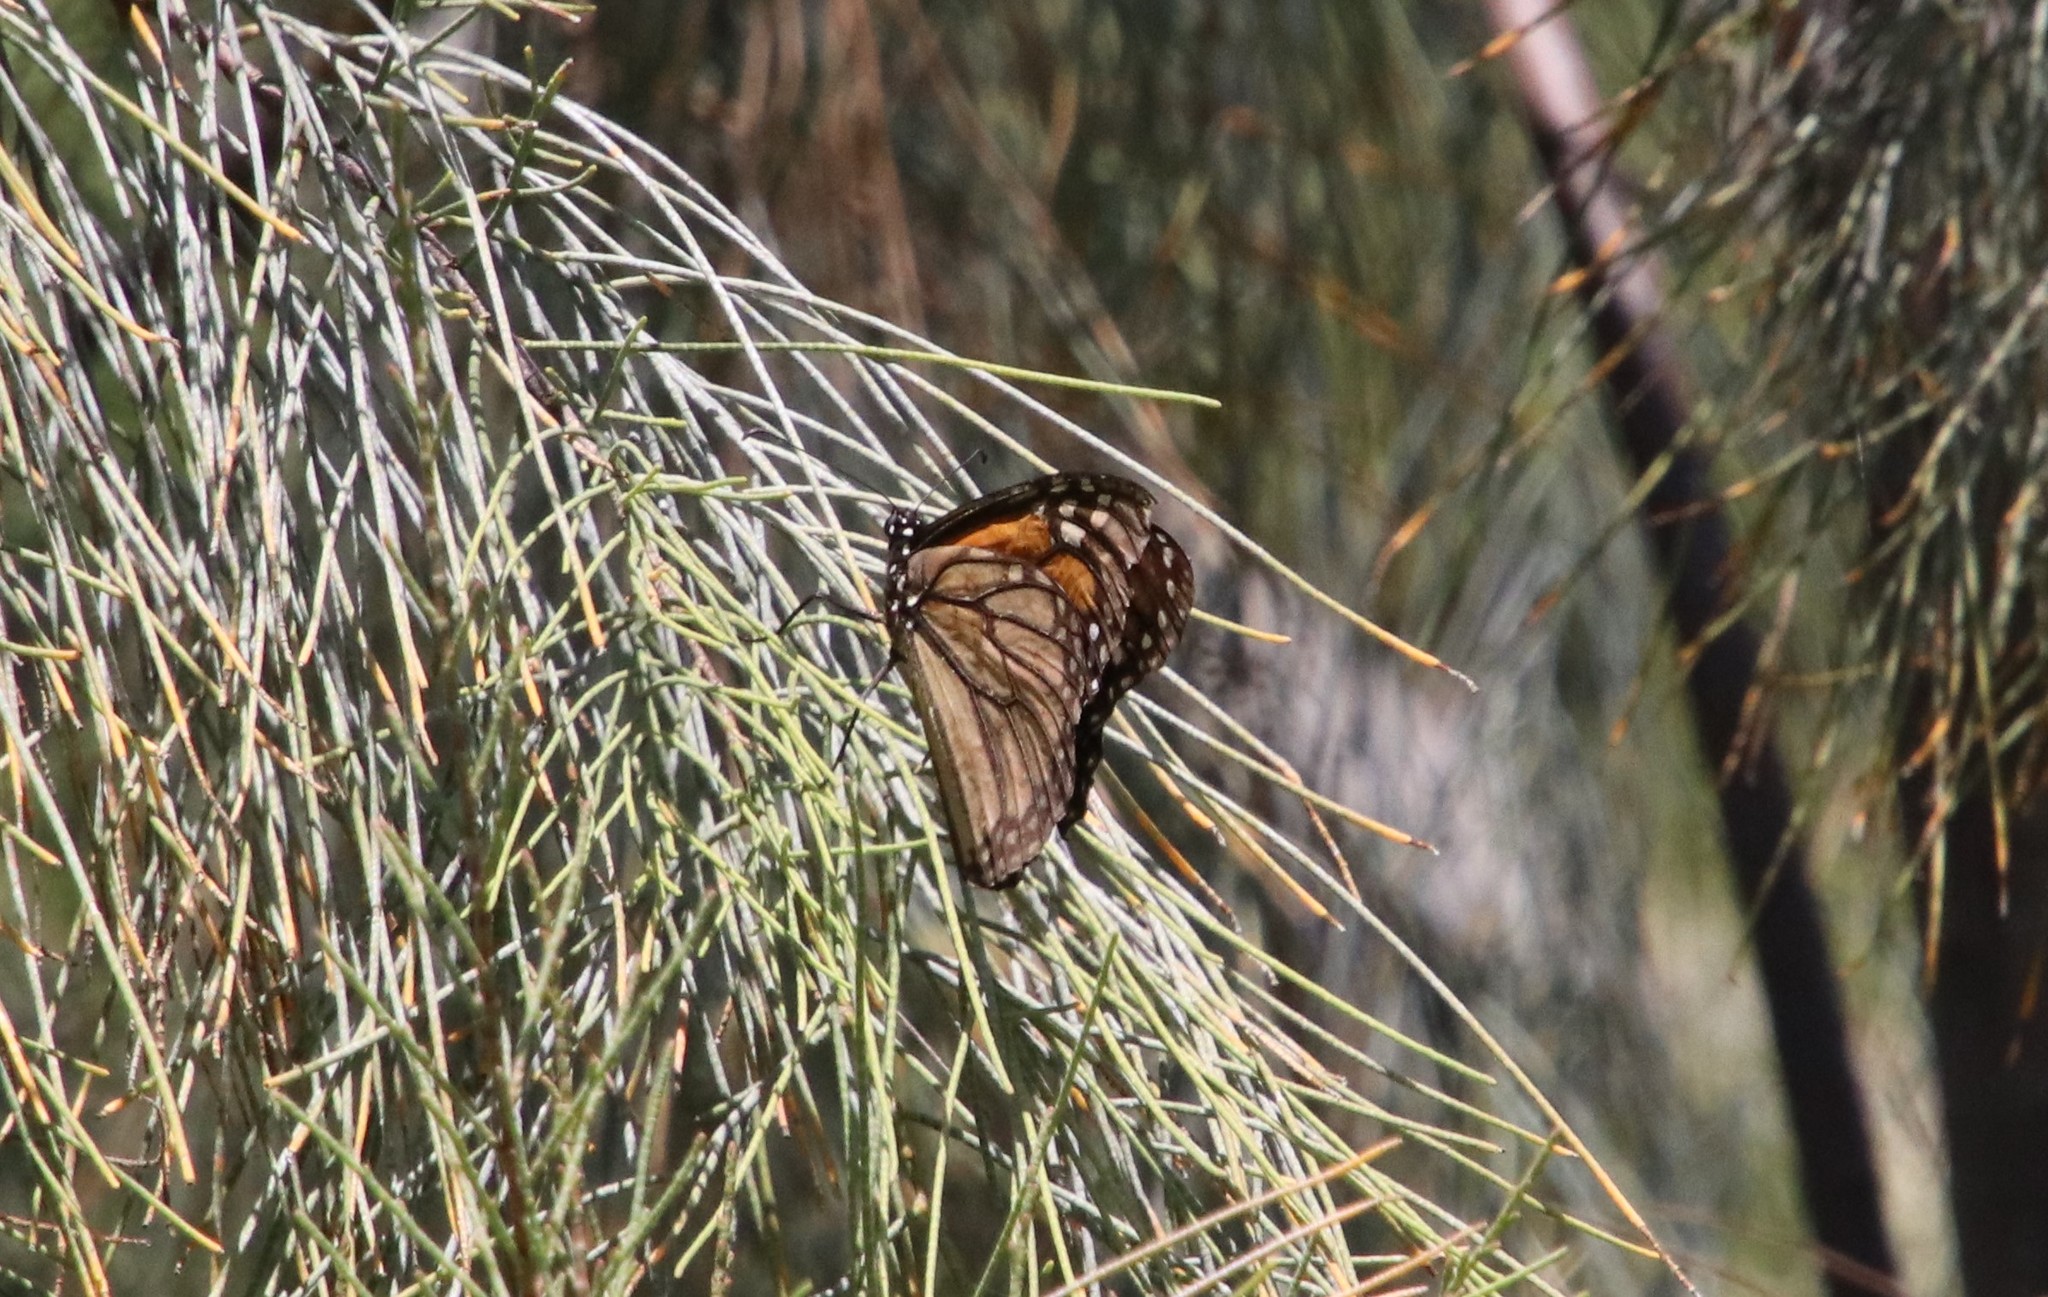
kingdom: Animalia
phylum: Arthropoda
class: Insecta
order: Lepidoptera
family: Nymphalidae
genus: Danaus
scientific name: Danaus plexippus
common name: Monarch
